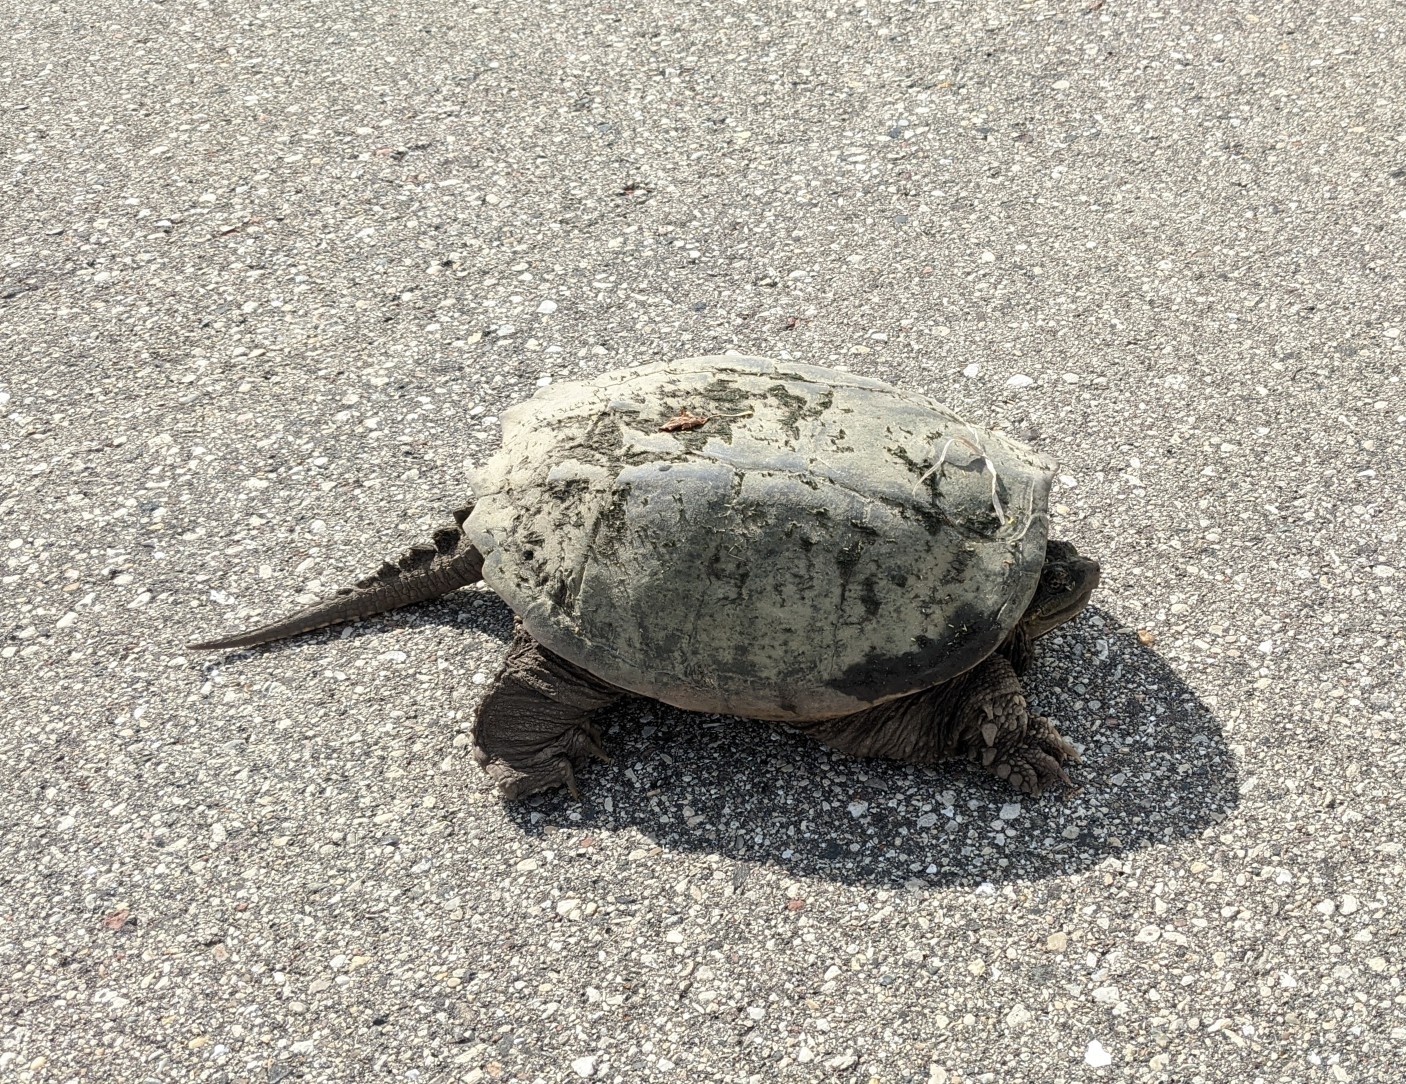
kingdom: Animalia
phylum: Chordata
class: Testudines
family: Chelydridae
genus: Chelydra
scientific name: Chelydra serpentina
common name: Common snapping turtle
